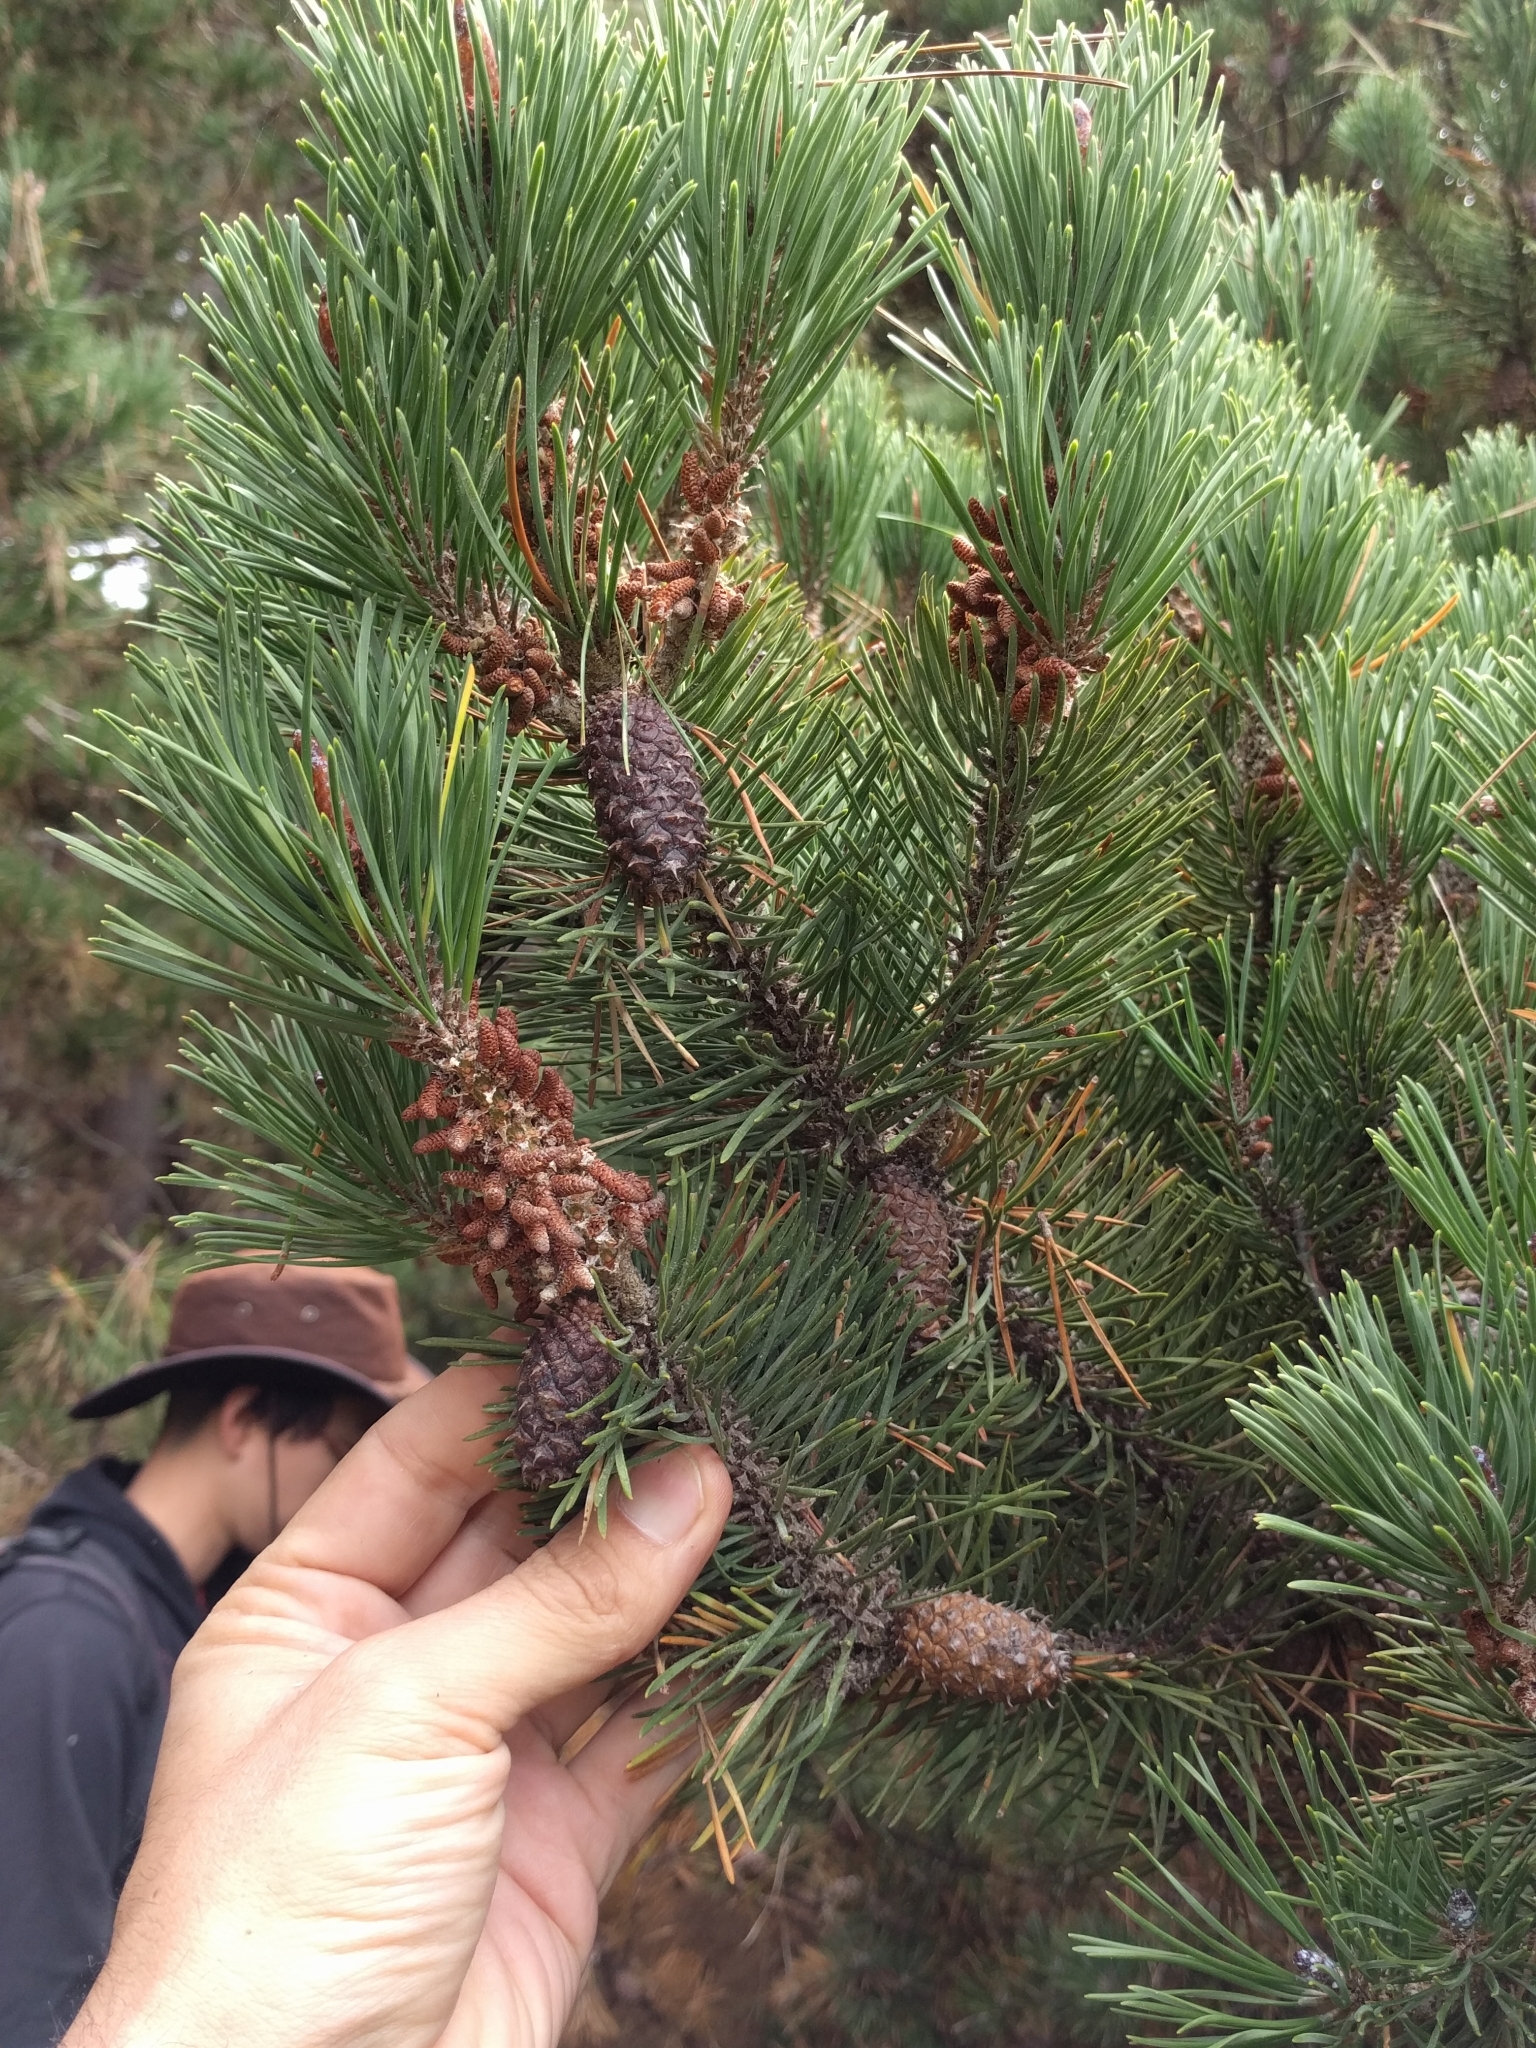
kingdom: Plantae
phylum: Tracheophyta
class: Pinopsida
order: Pinales
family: Pinaceae
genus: Pinus
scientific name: Pinus contorta
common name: Lodgepole pine
